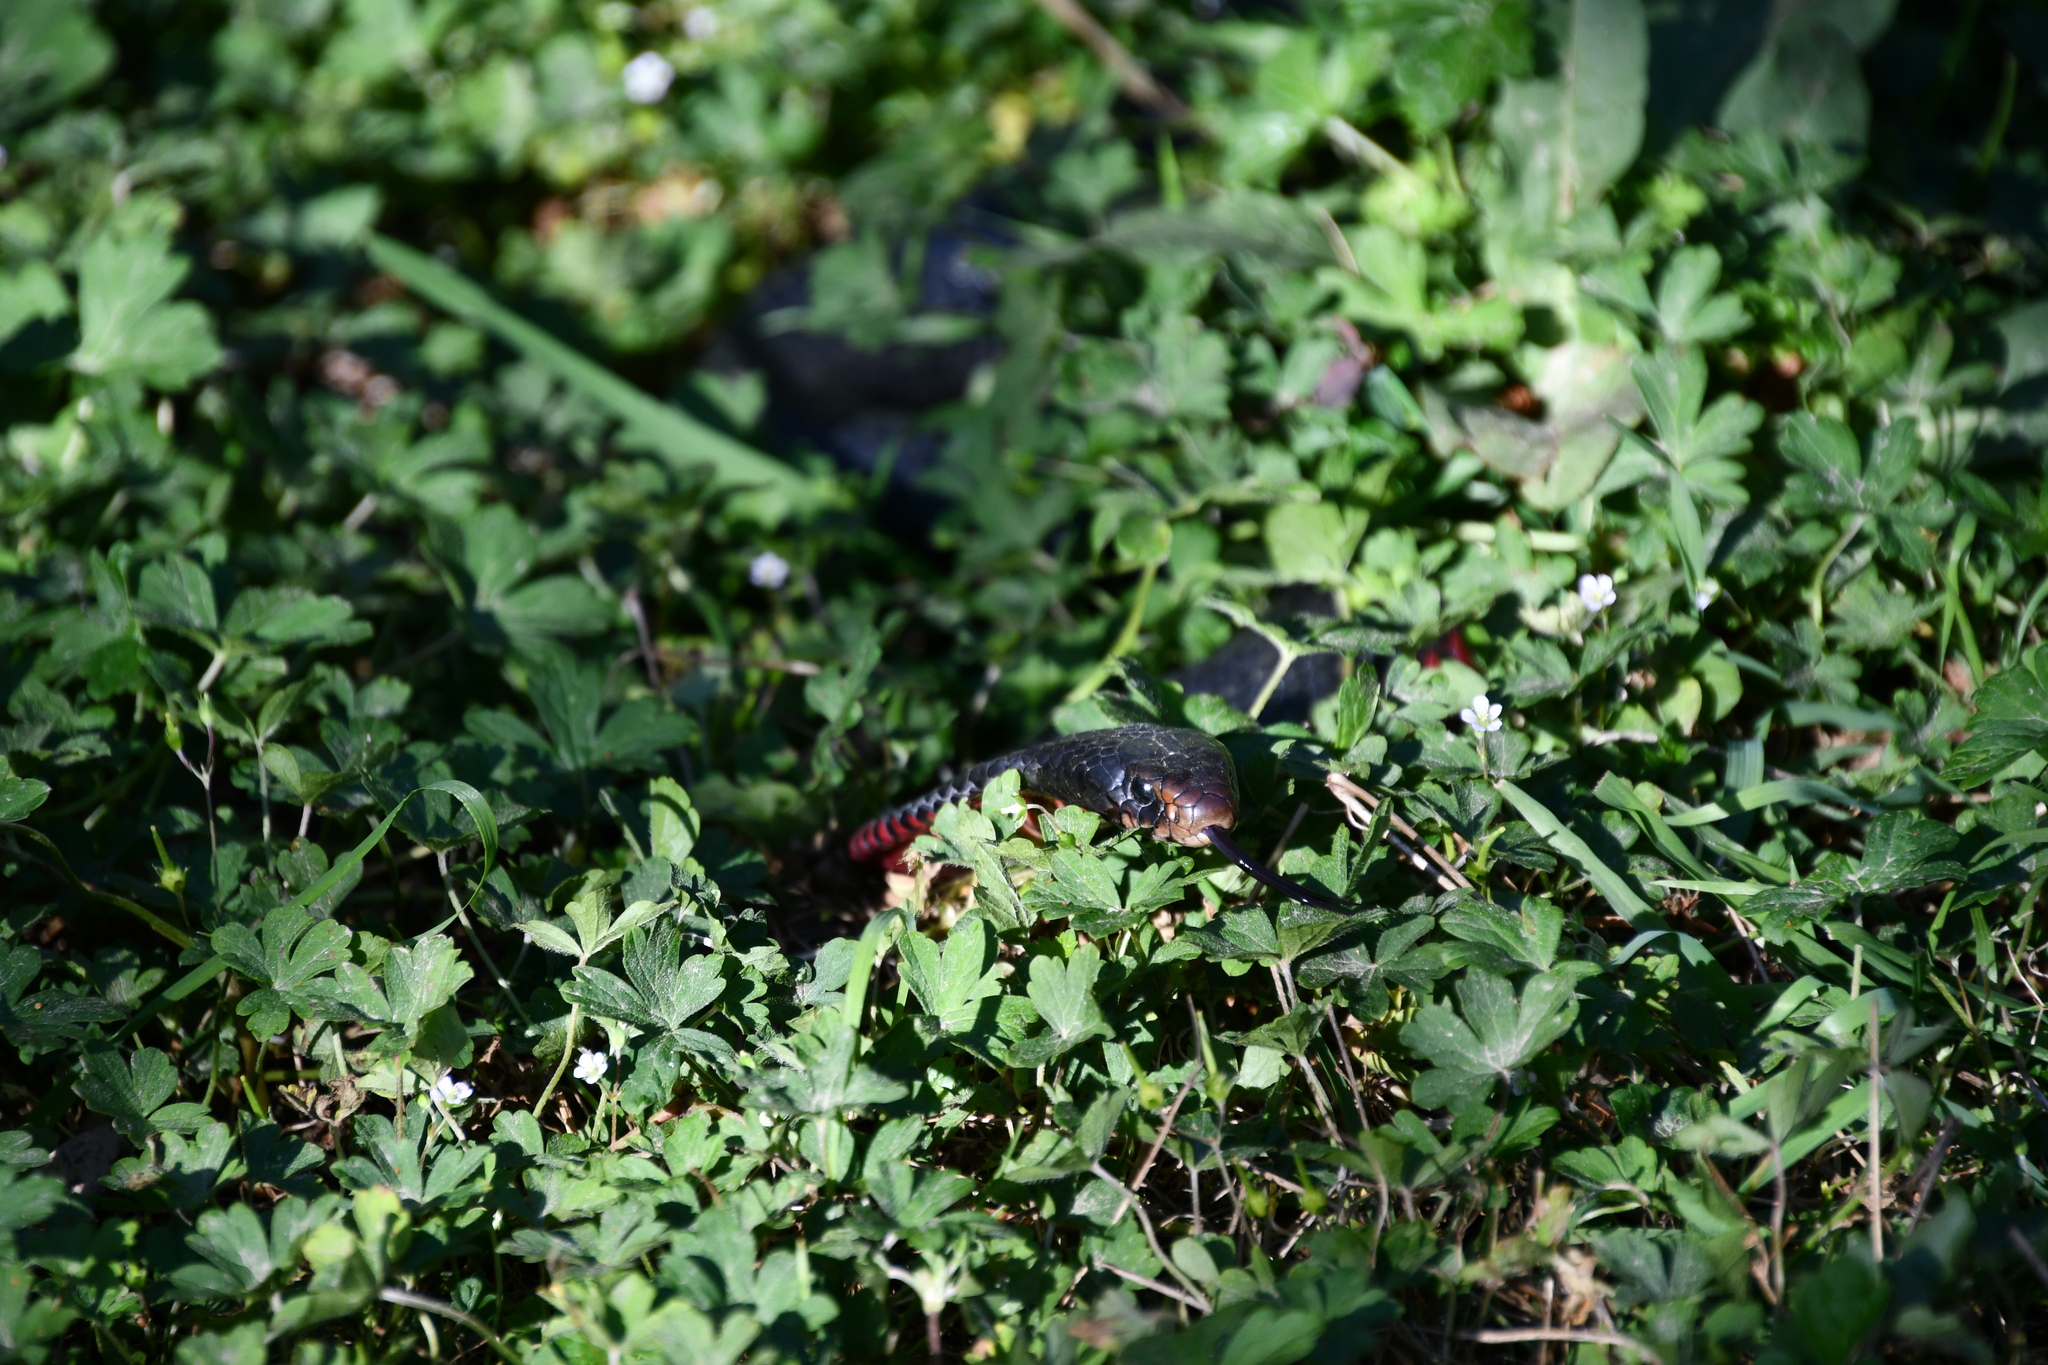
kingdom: Animalia
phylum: Chordata
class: Squamata
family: Elapidae
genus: Pseudechis
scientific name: Pseudechis porphyriacus
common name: Australian black snake
